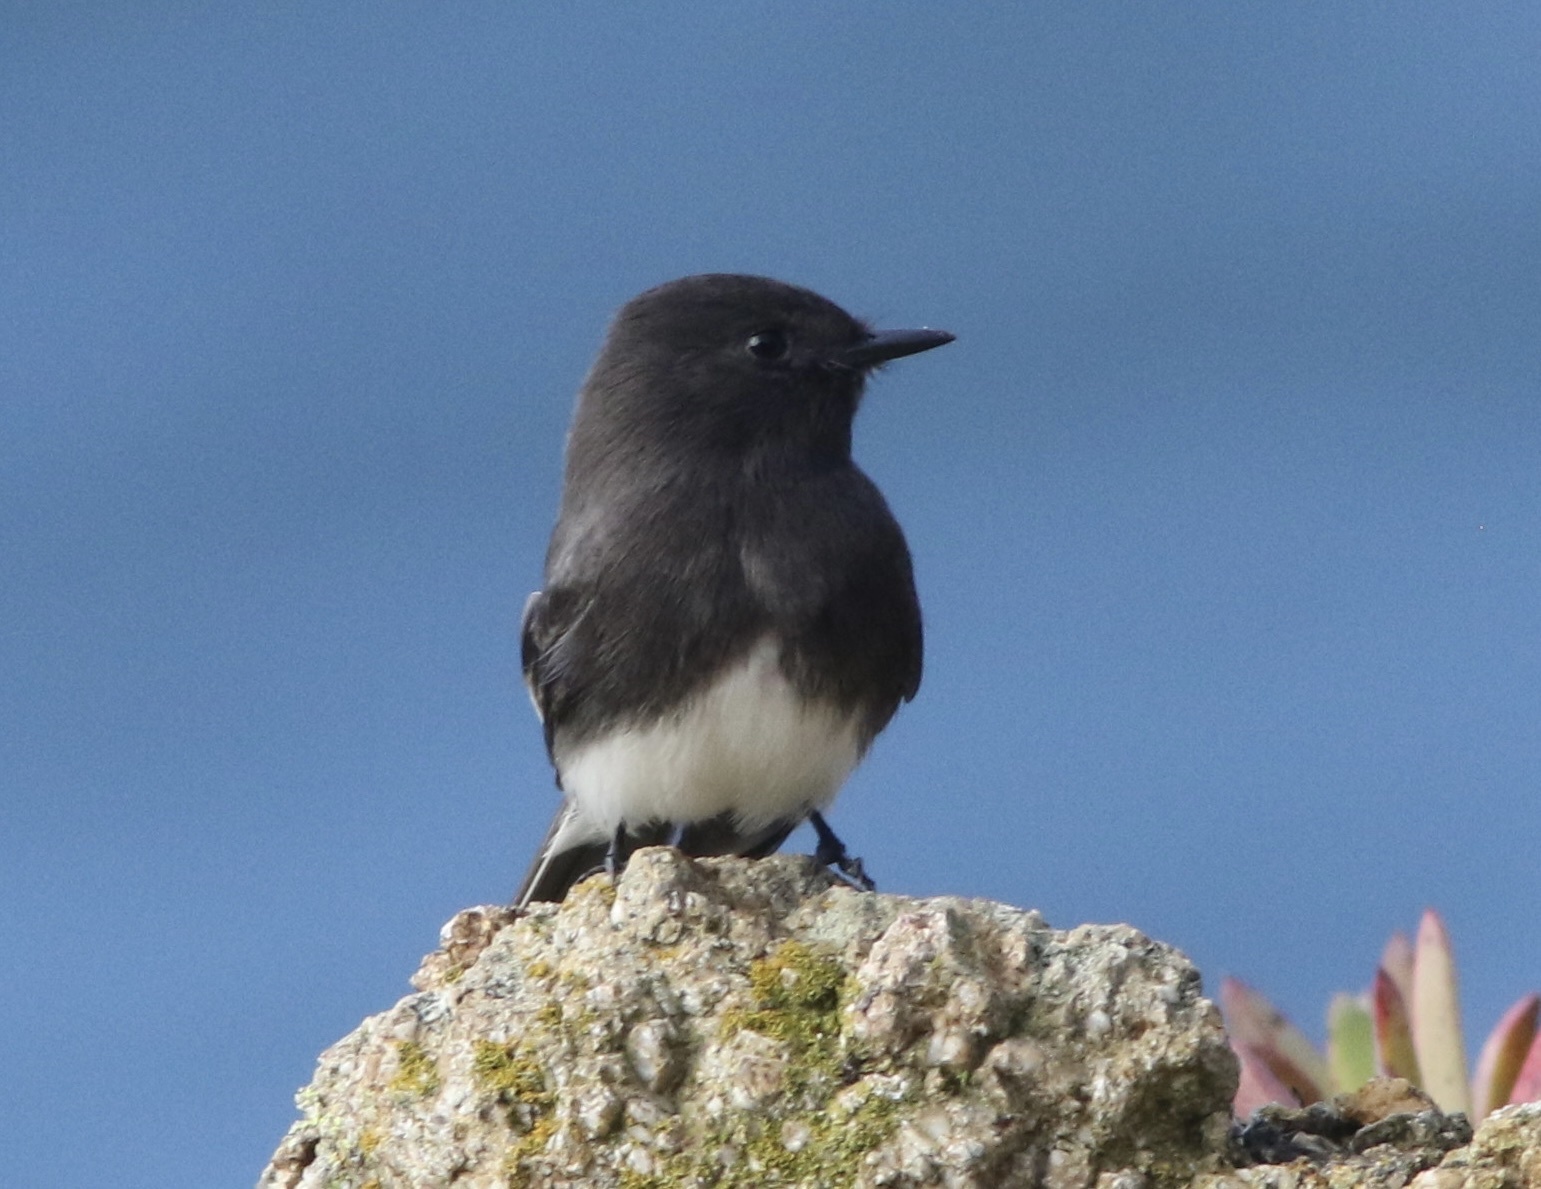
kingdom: Animalia
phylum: Chordata
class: Aves
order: Passeriformes
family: Tyrannidae
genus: Sayornis
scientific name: Sayornis nigricans
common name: Black phoebe
